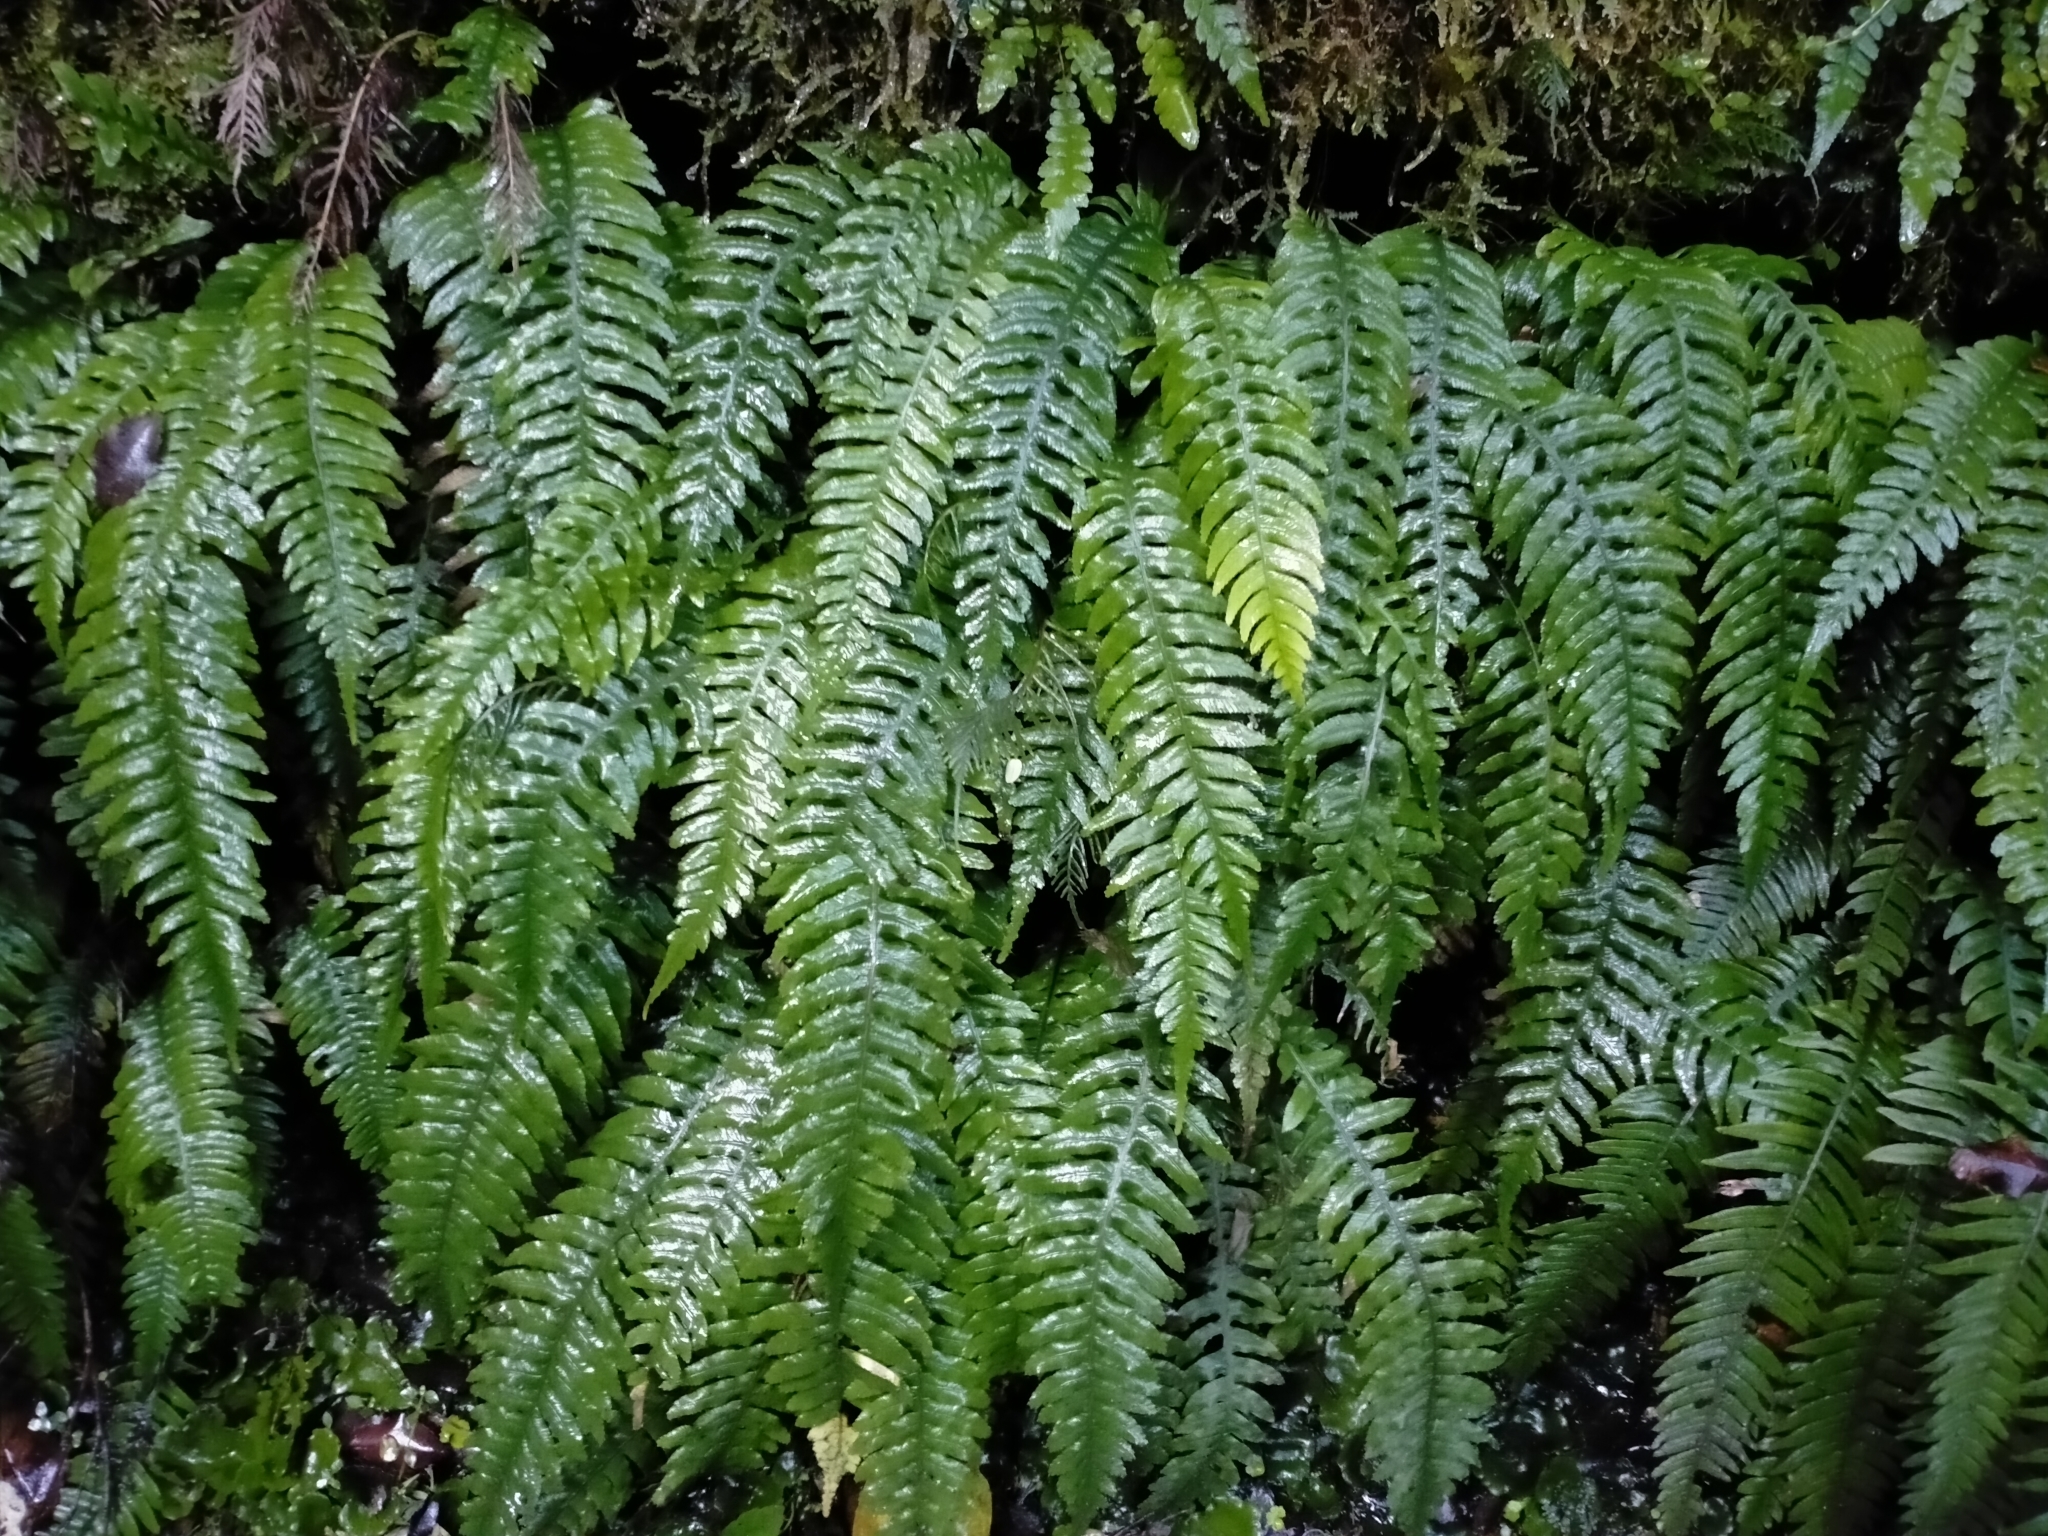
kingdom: Plantae
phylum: Tracheophyta
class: Polypodiopsida
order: Polypodiales
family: Blechnaceae
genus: Austroblechnum
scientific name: Austroblechnum lanceolatum
